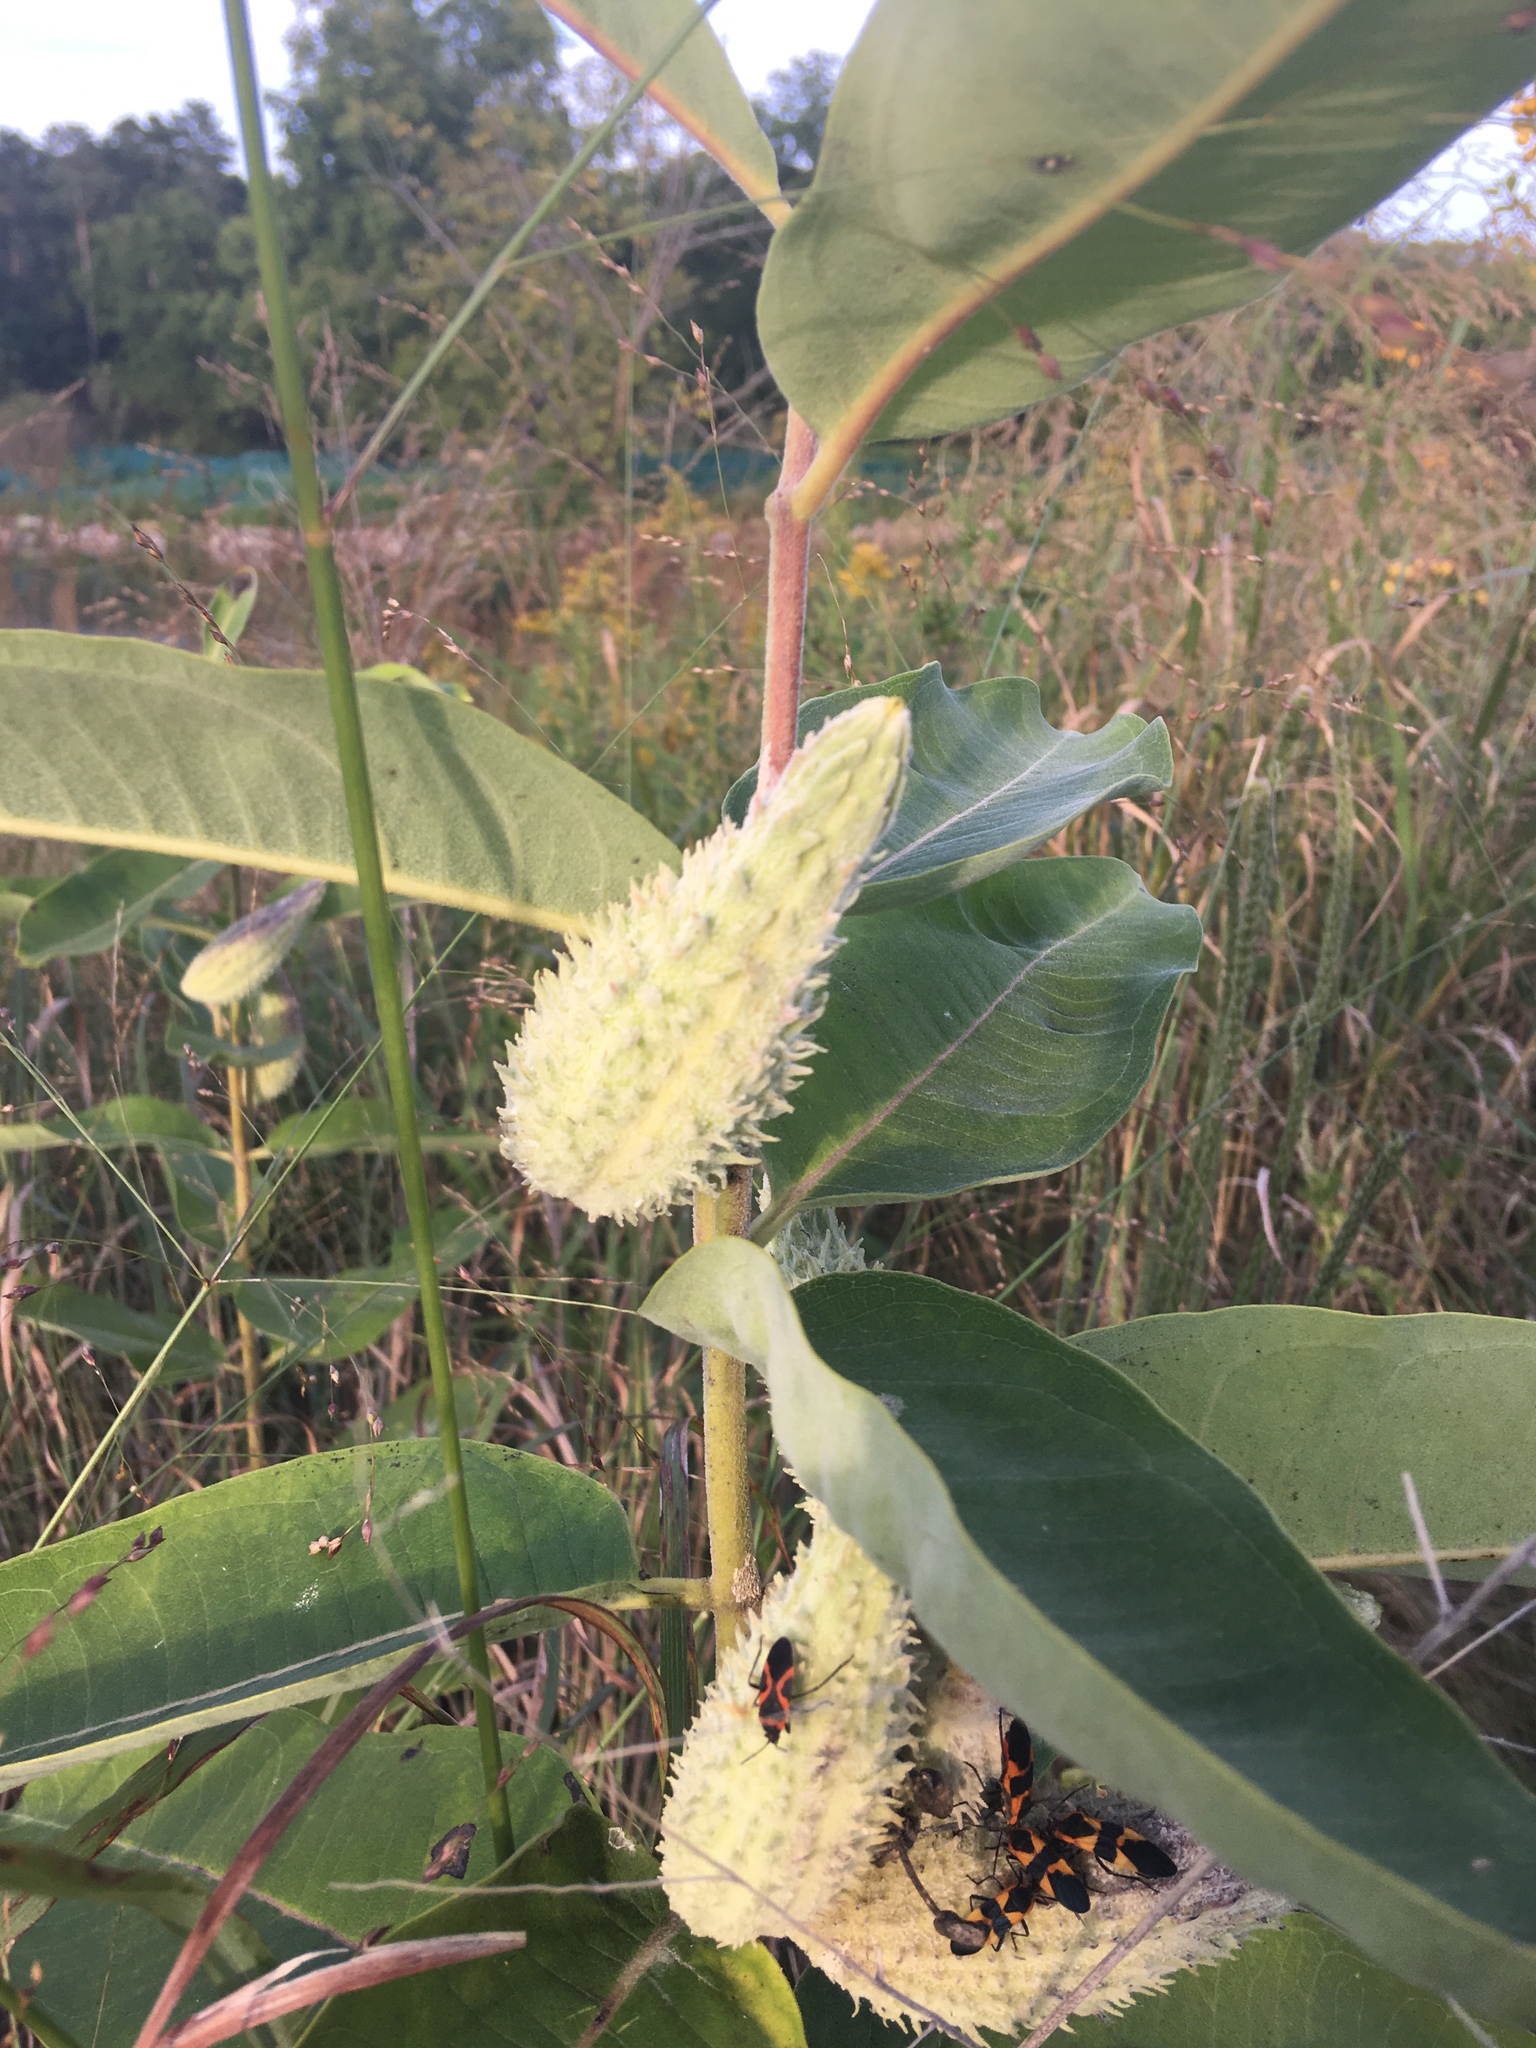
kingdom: Plantae
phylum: Tracheophyta
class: Magnoliopsida
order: Gentianales
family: Apocynaceae
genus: Asclepias
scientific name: Asclepias syriaca
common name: Common milkweed
